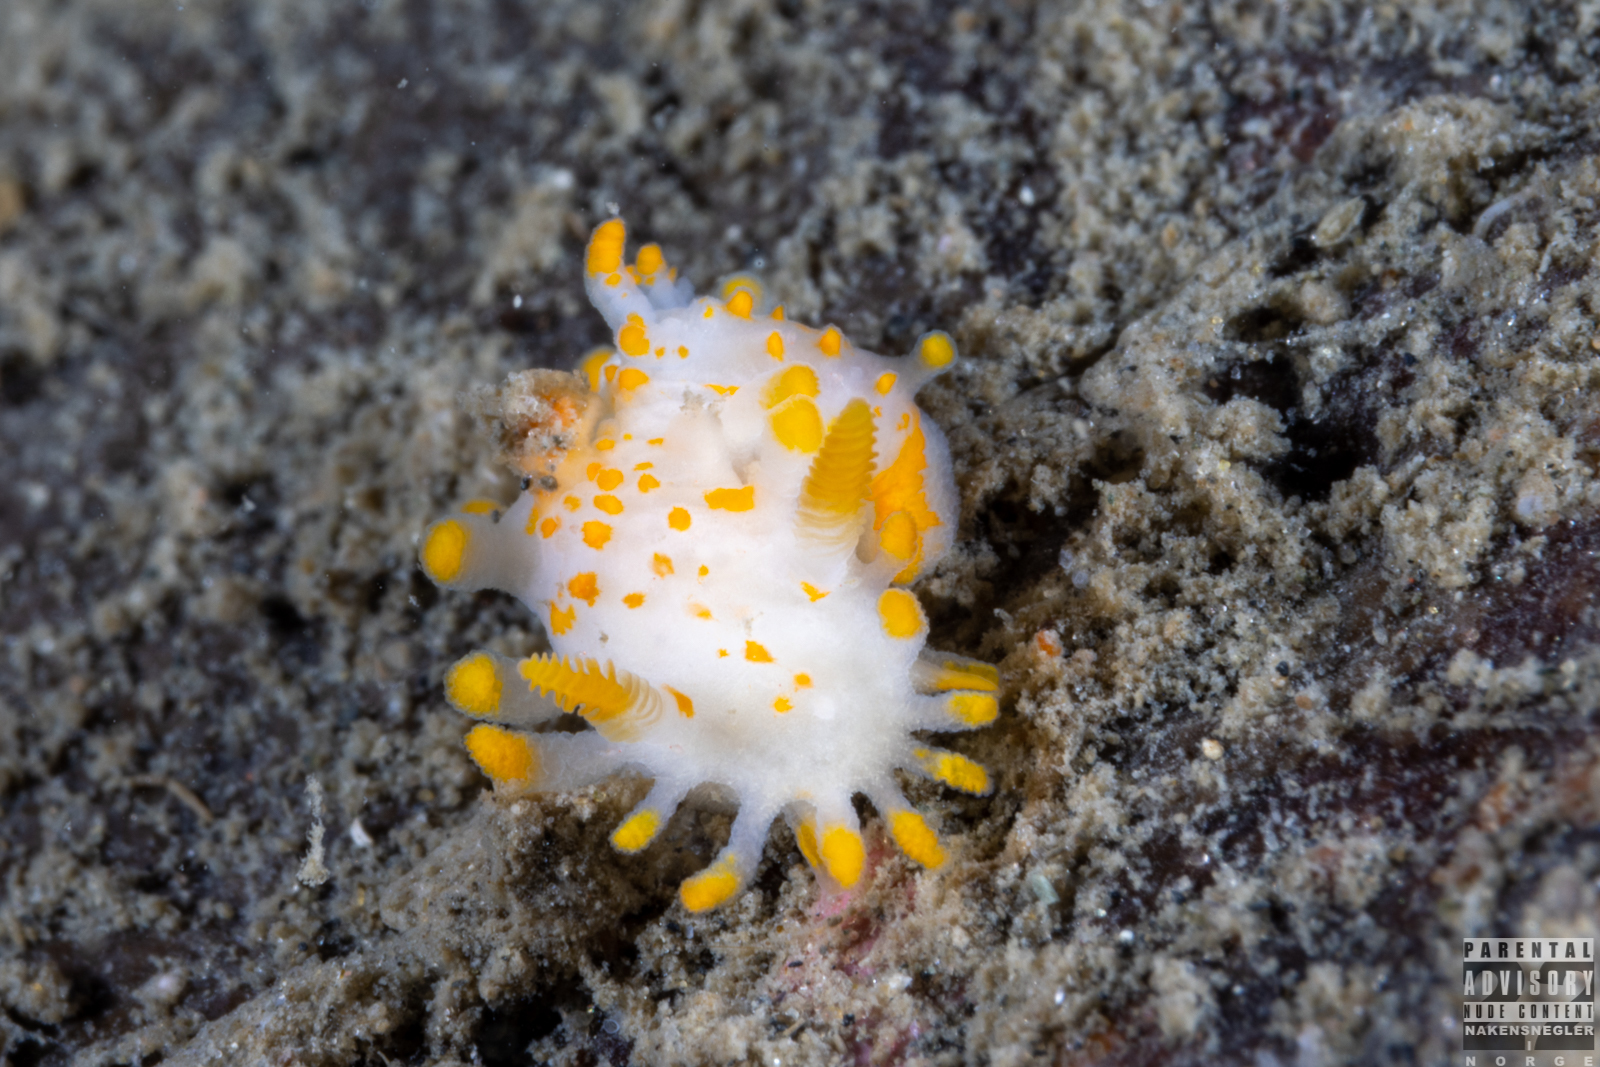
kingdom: Animalia
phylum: Mollusca
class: Gastropoda
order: Nudibranchia
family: Polyceridae
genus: Limacia
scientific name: Limacia clavigera
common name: Orange-clubbed sea slug
